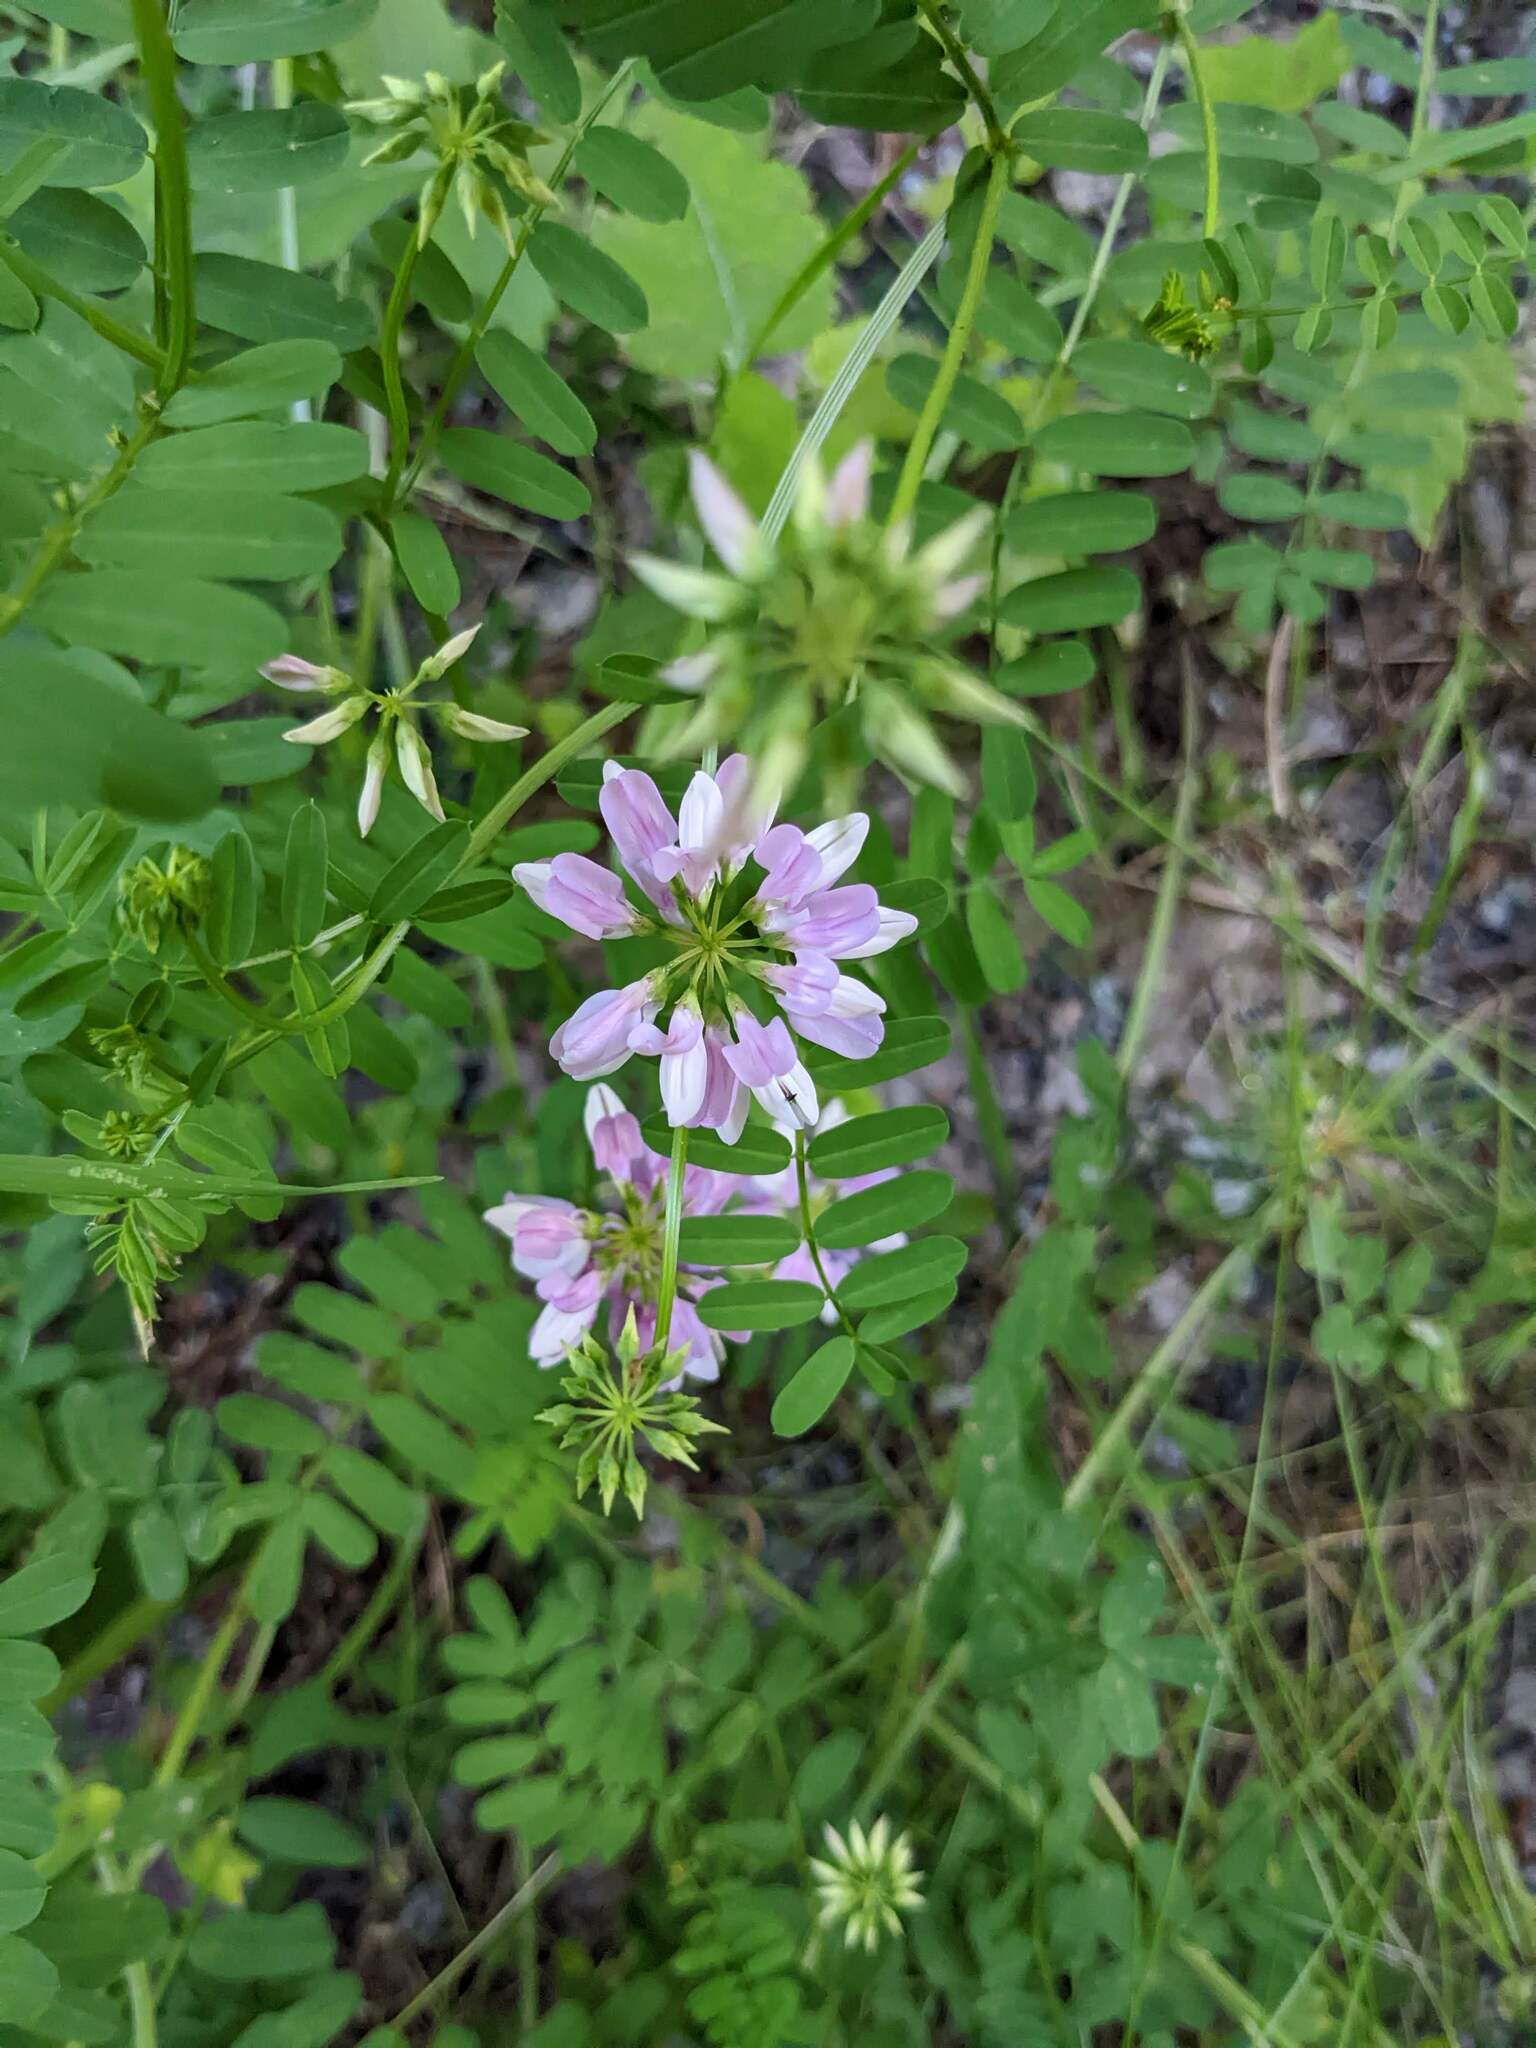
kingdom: Plantae
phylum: Tracheophyta
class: Magnoliopsida
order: Fabales
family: Fabaceae
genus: Coronilla
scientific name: Coronilla varia
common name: Crownvetch
